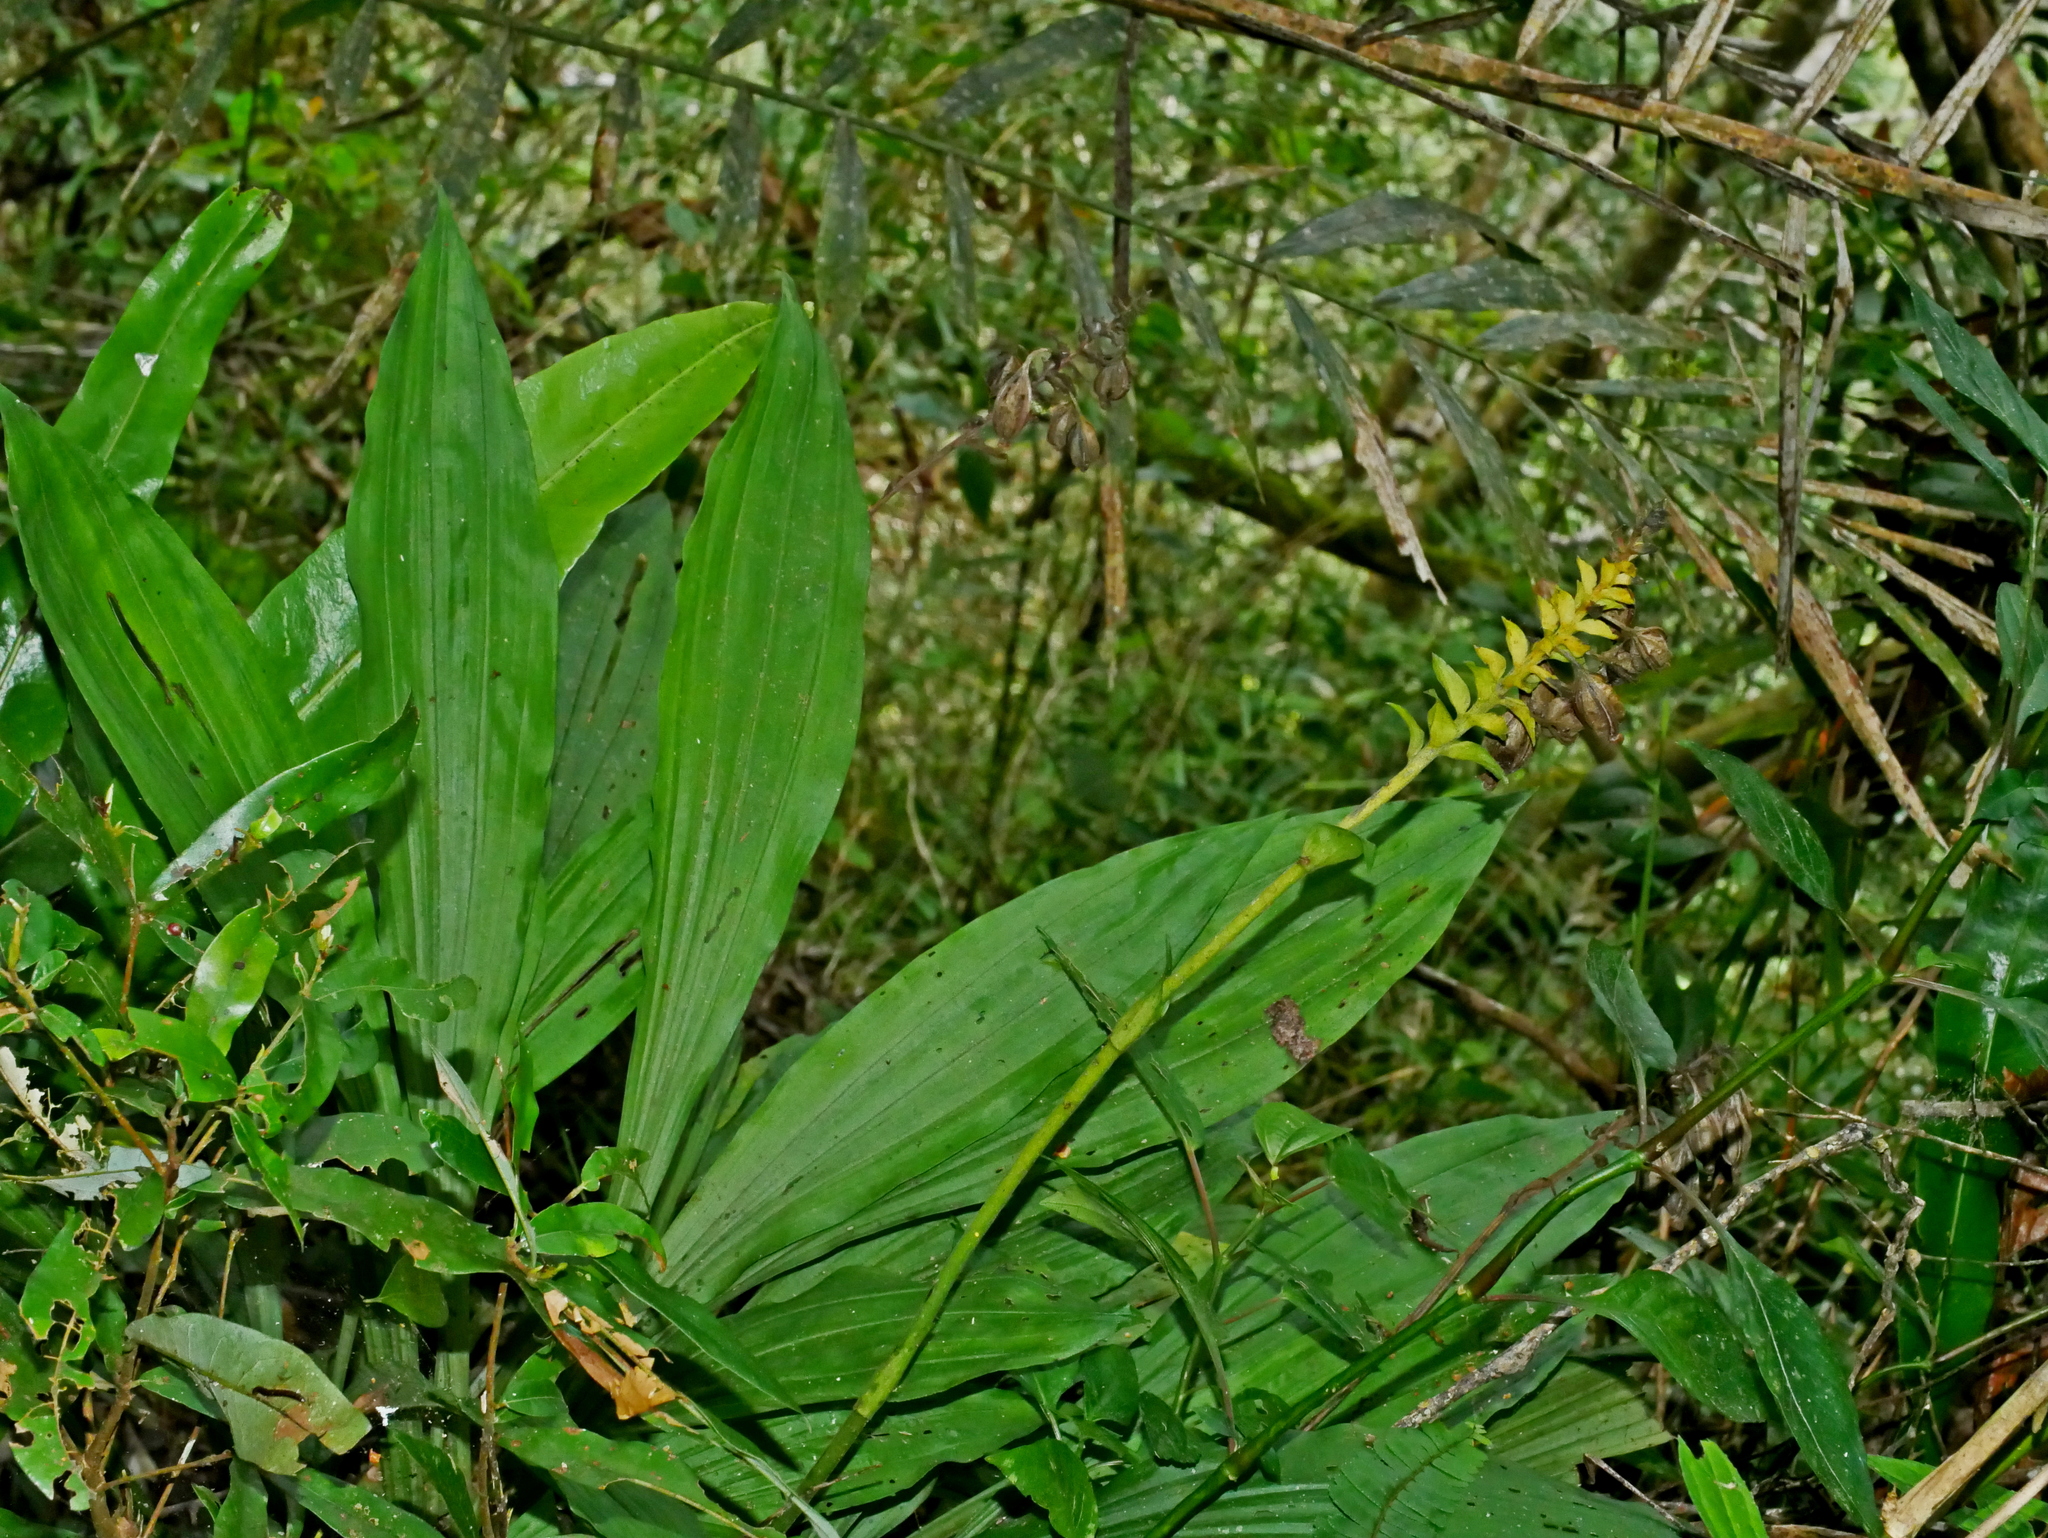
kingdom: Plantae
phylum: Tracheophyta
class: Liliopsida
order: Asparagales
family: Orchidaceae
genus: Calanthe
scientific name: Calanthe triplicata
